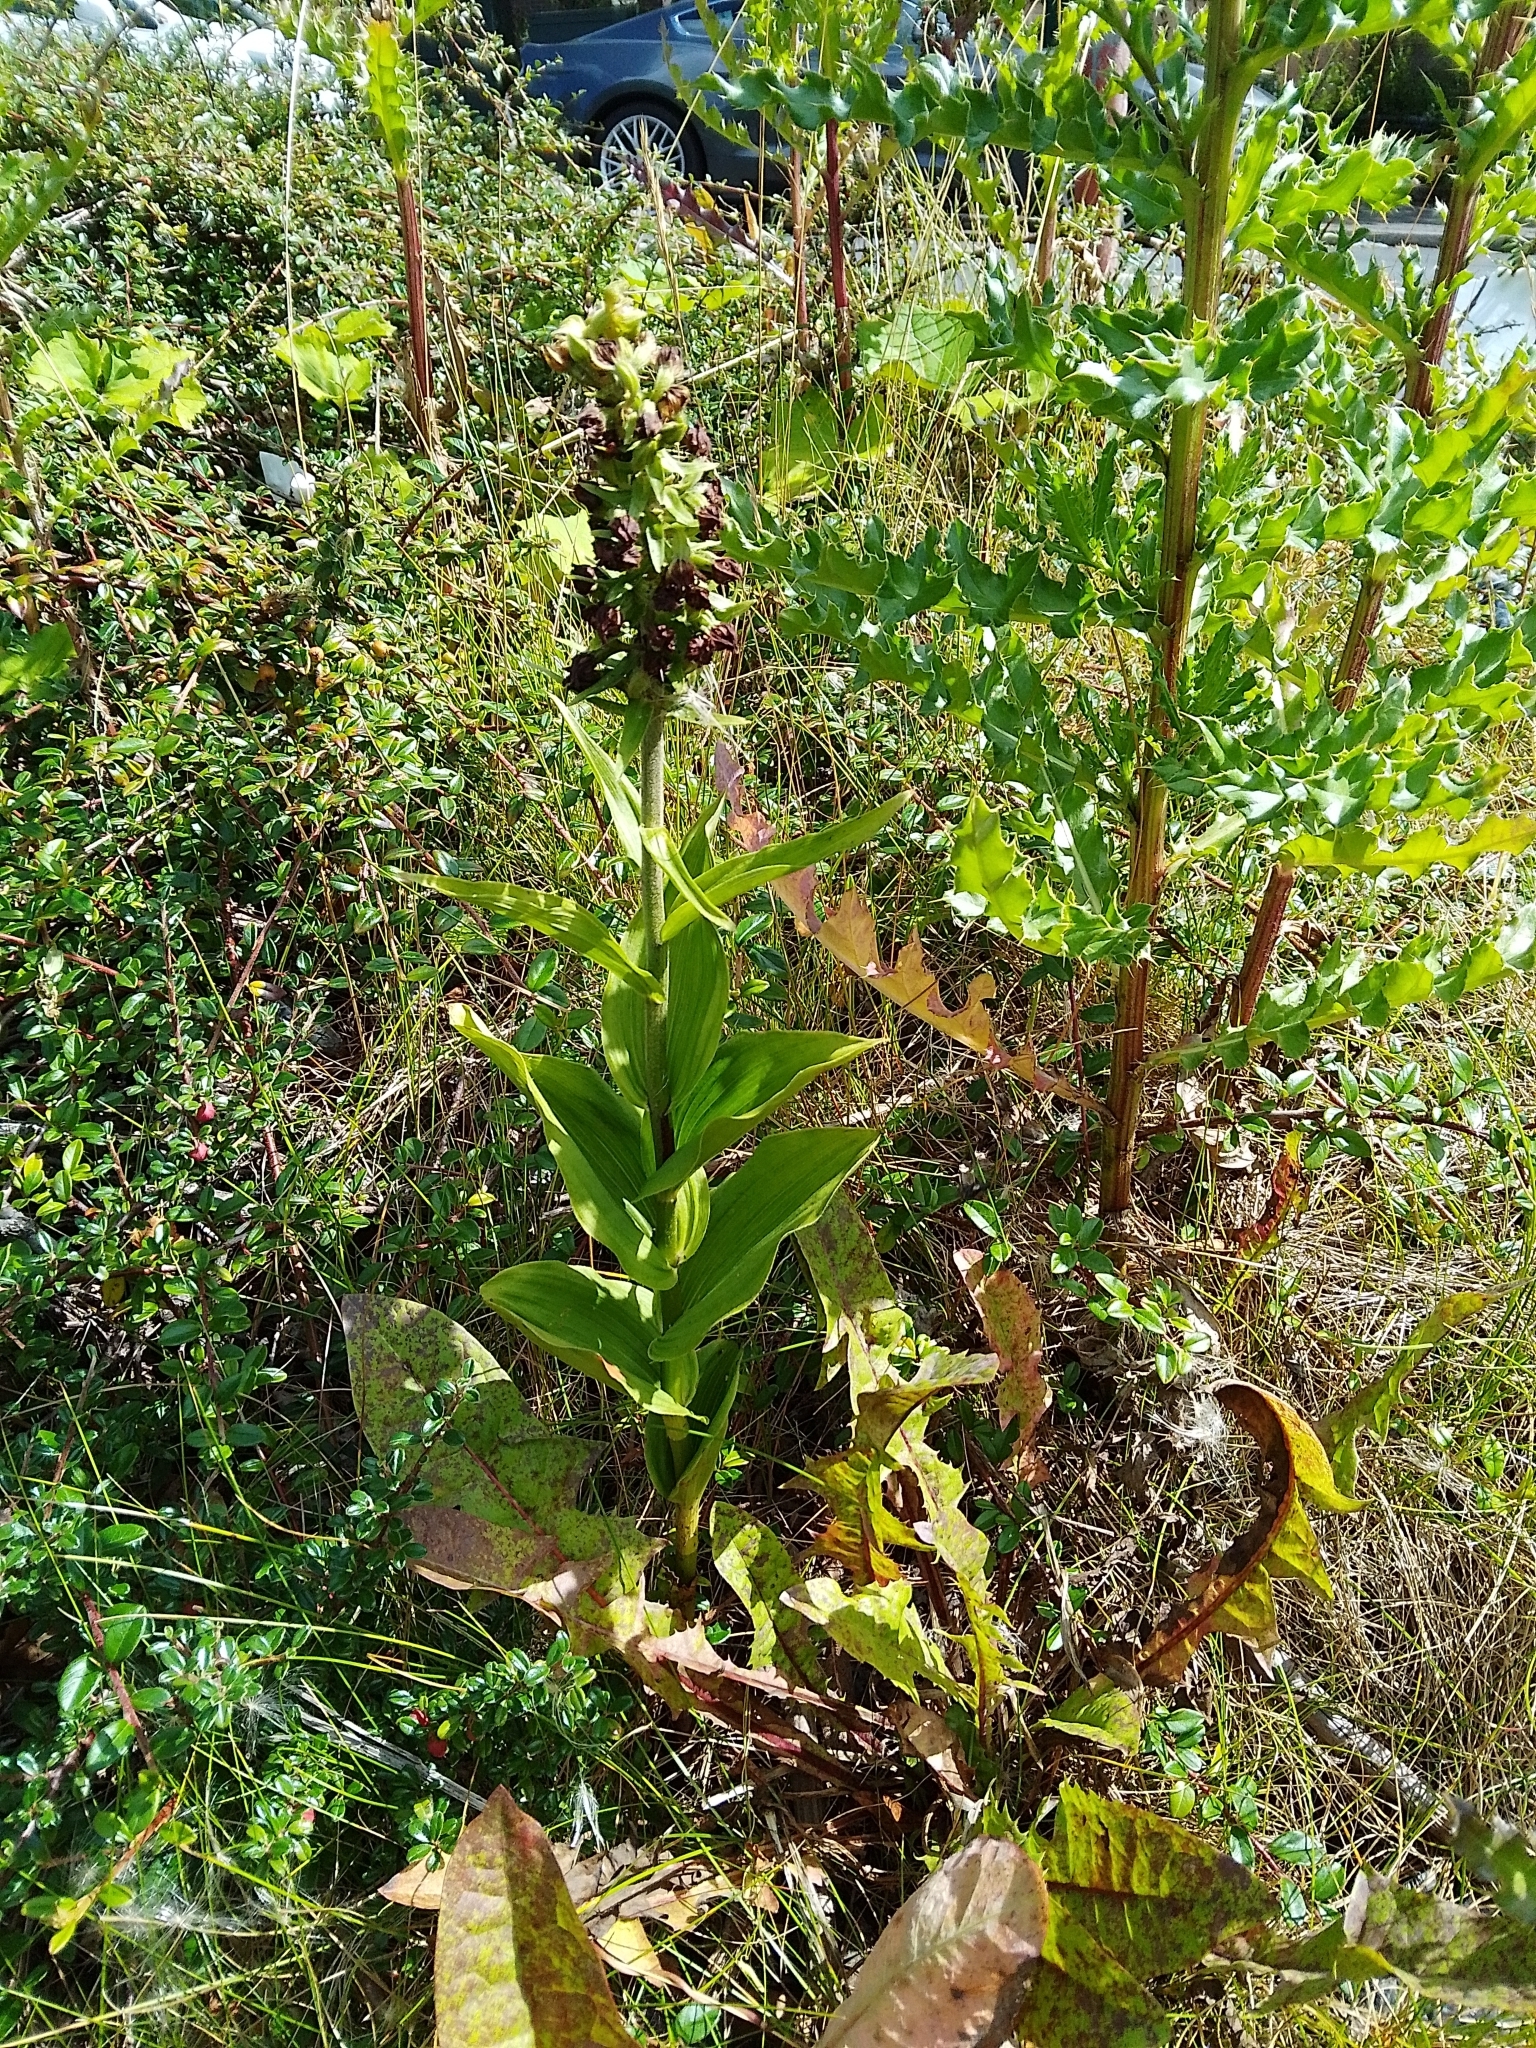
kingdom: Plantae
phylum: Tracheophyta
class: Liliopsida
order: Asparagales
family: Orchidaceae
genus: Epipactis
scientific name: Epipactis helleborine
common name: Broad-leaved helleborine
